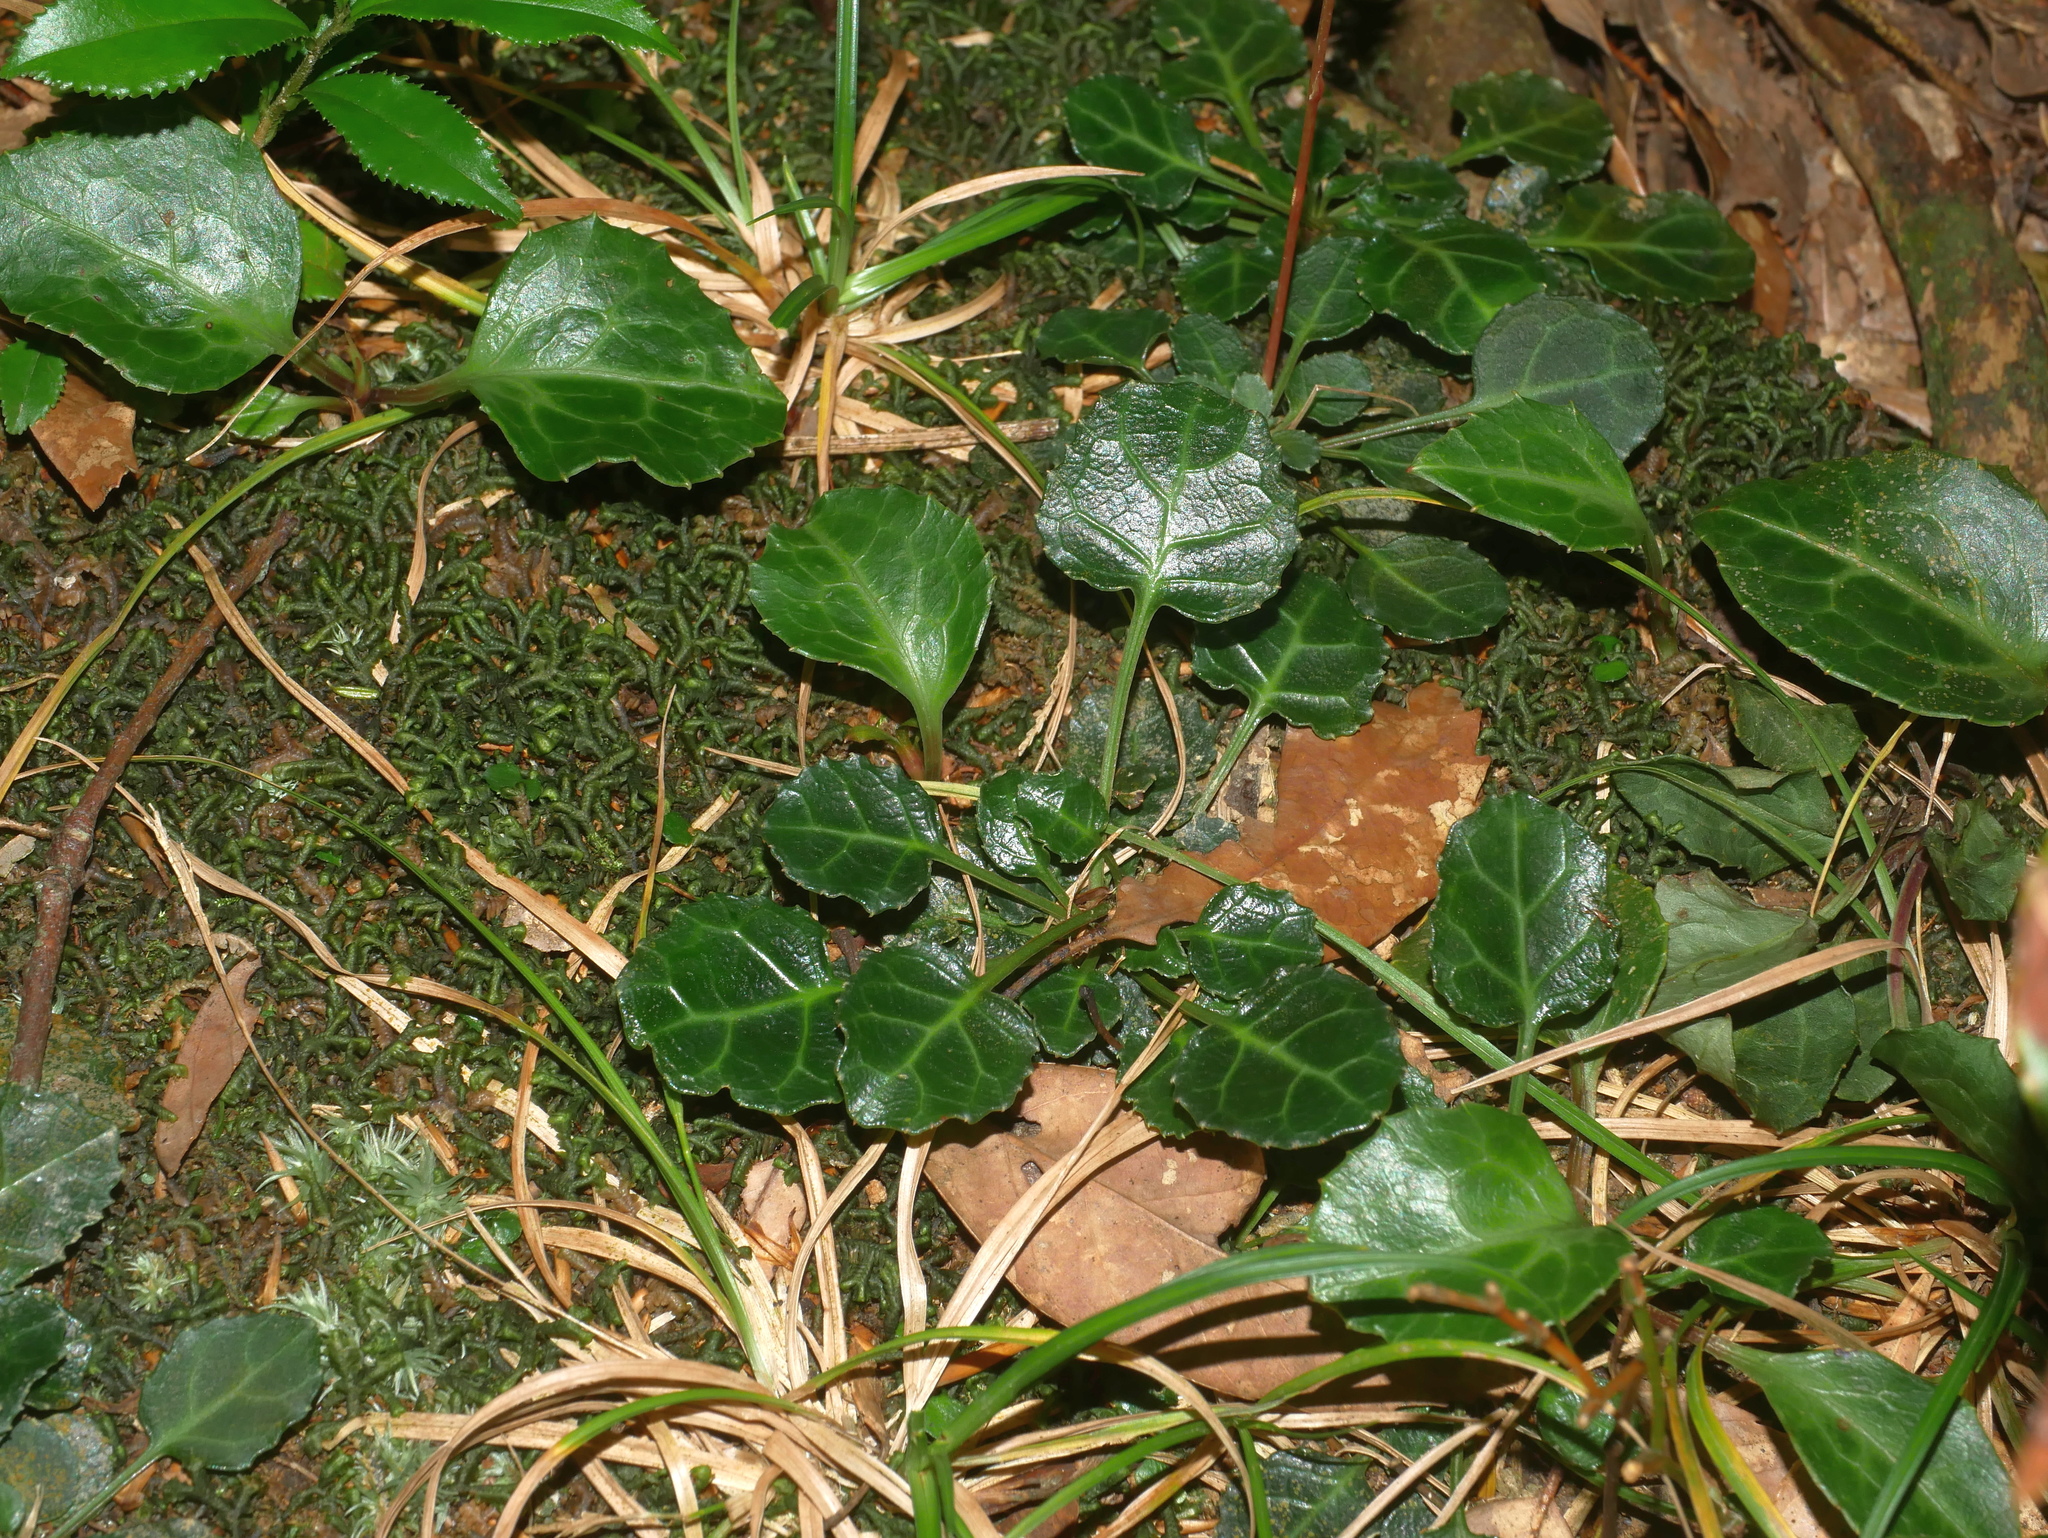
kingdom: Plantae
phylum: Tracheophyta
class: Magnoliopsida
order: Ericales
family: Diapensiaceae
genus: Shortia
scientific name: Shortia rotundifolia
